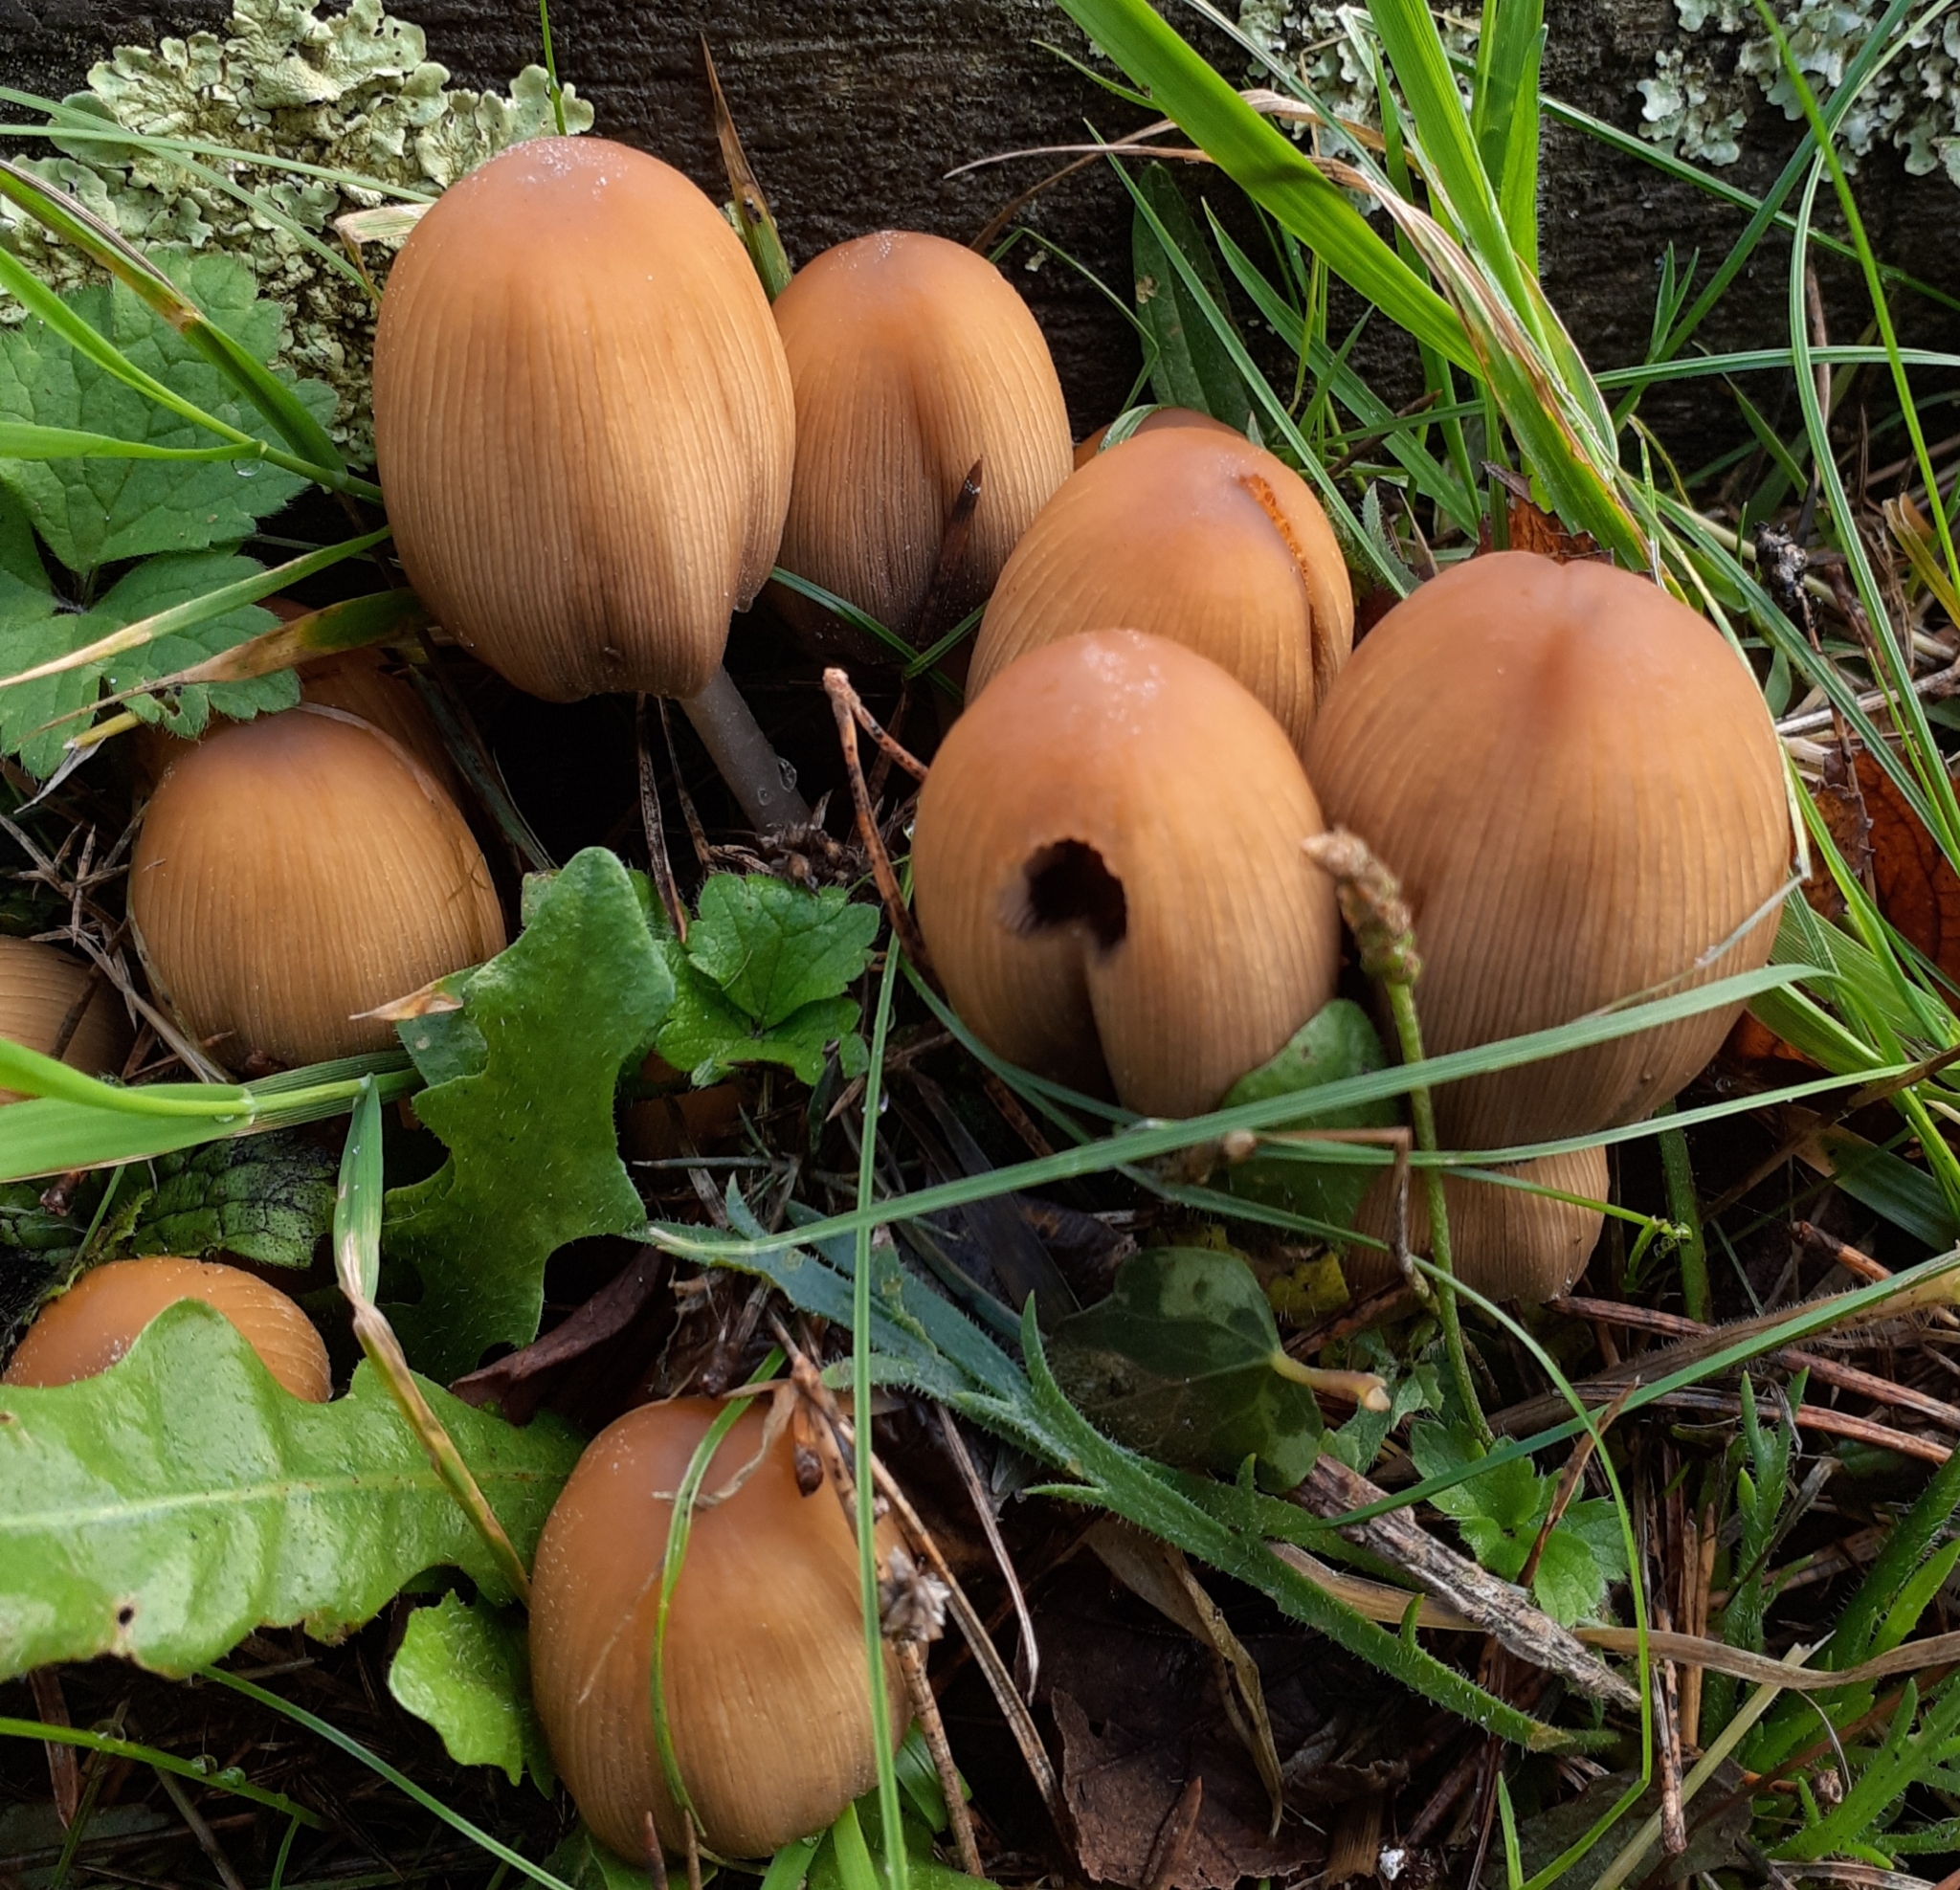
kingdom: Fungi
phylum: Basidiomycota
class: Agaricomycetes
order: Agaricales
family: Psathyrellaceae
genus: Coprinellus
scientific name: Coprinellus micaceus
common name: Glistening ink-cap
